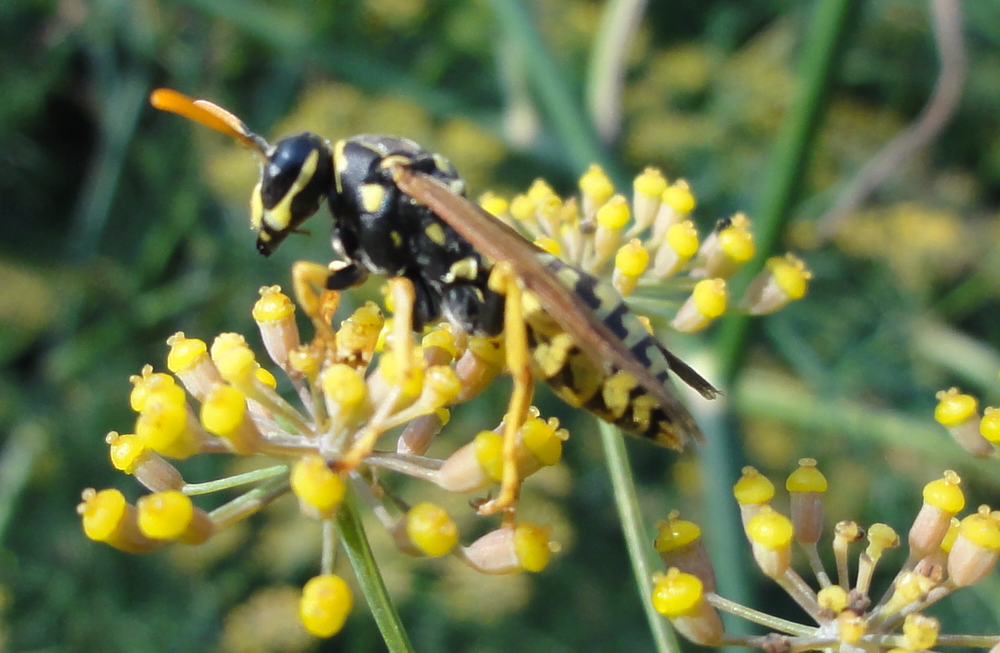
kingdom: Animalia
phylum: Arthropoda
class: Insecta
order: Hymenoptera
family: Eumenidae
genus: Polistes
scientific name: Polistes dominula
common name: Paper wasp
